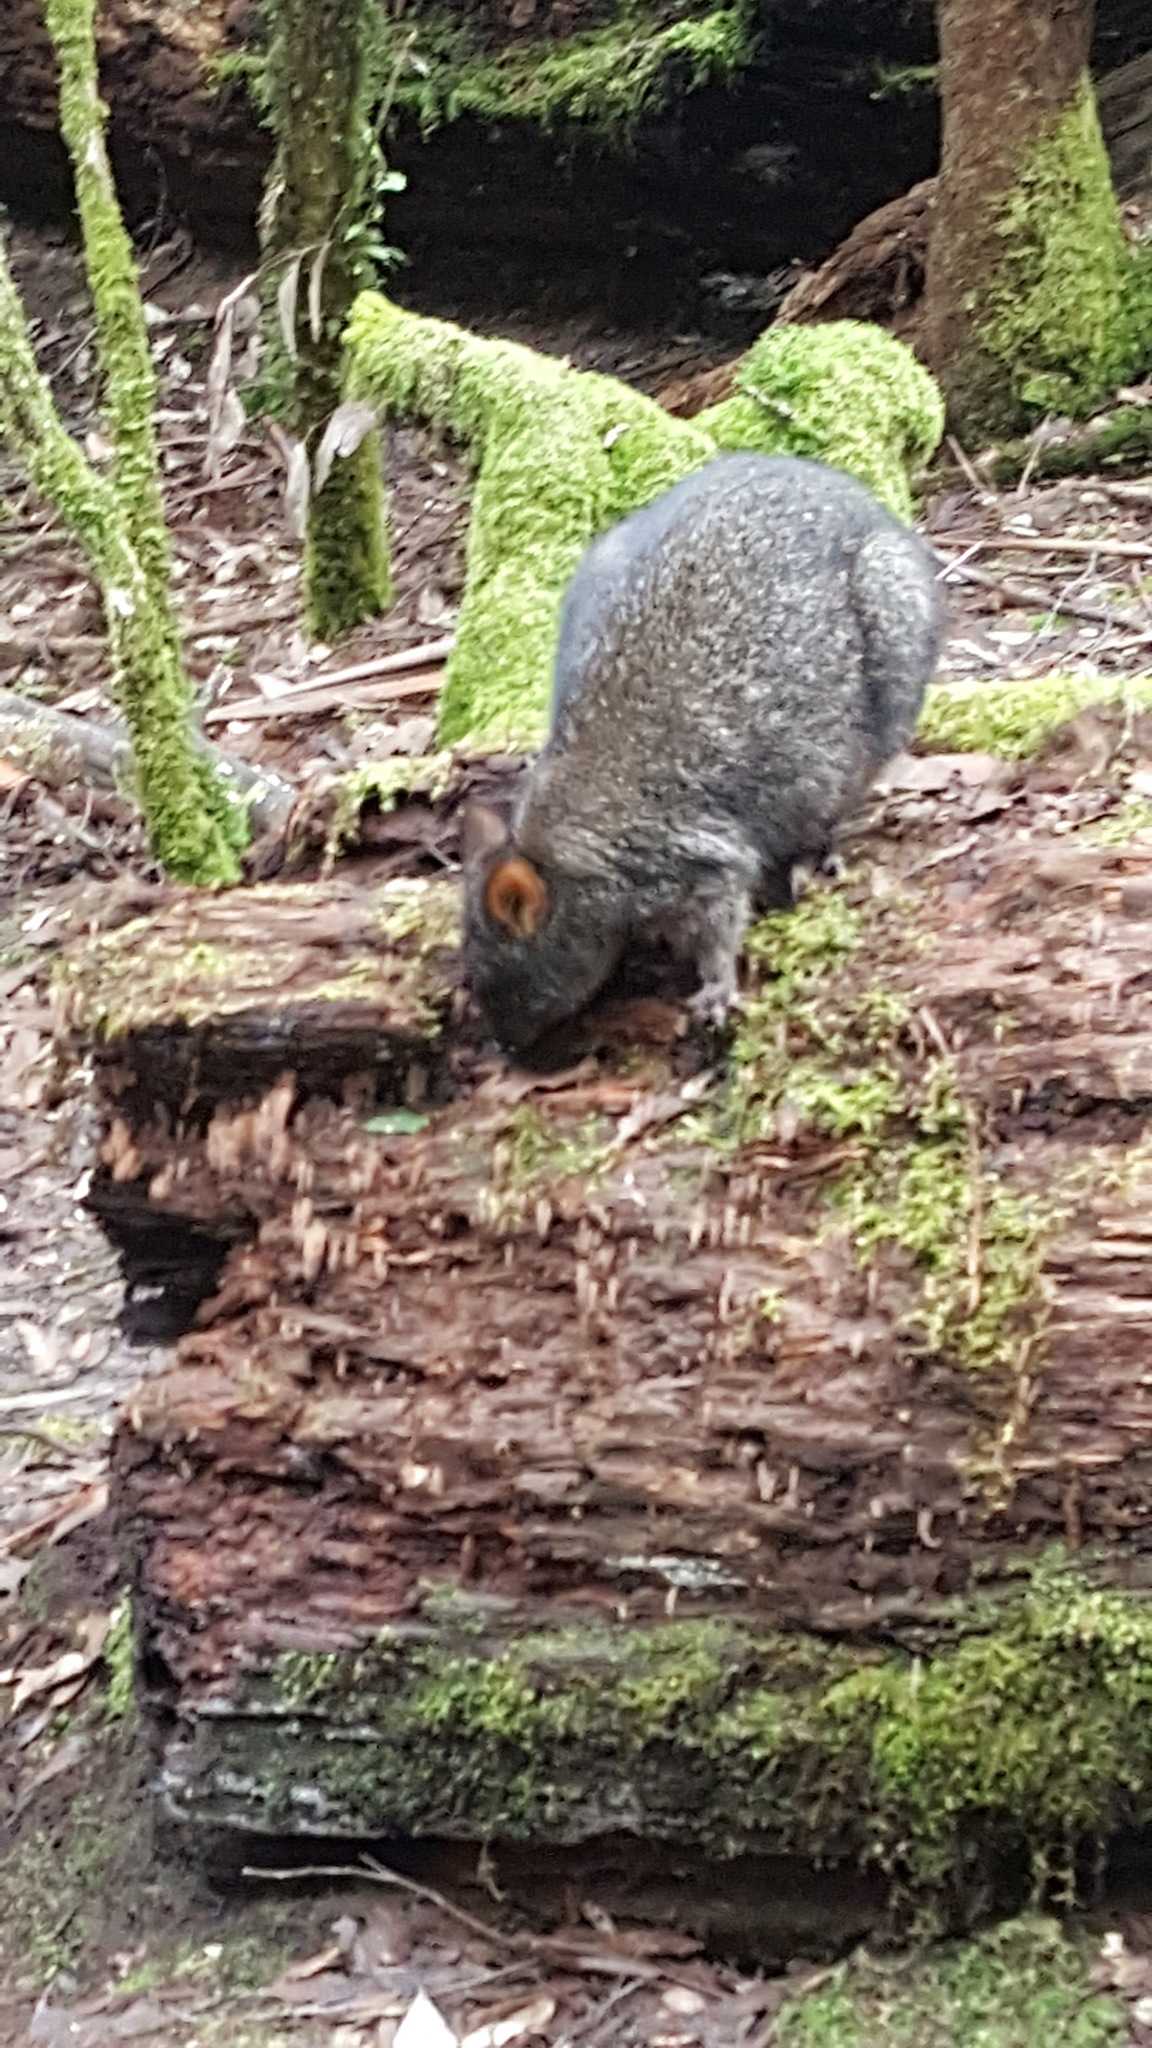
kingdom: Animalia
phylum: Chordata
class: Mammalia
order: Diprotodontia
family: Macropodidae
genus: Thylogale
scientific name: Thylogale billardierii
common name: Tasmanian pademelon
